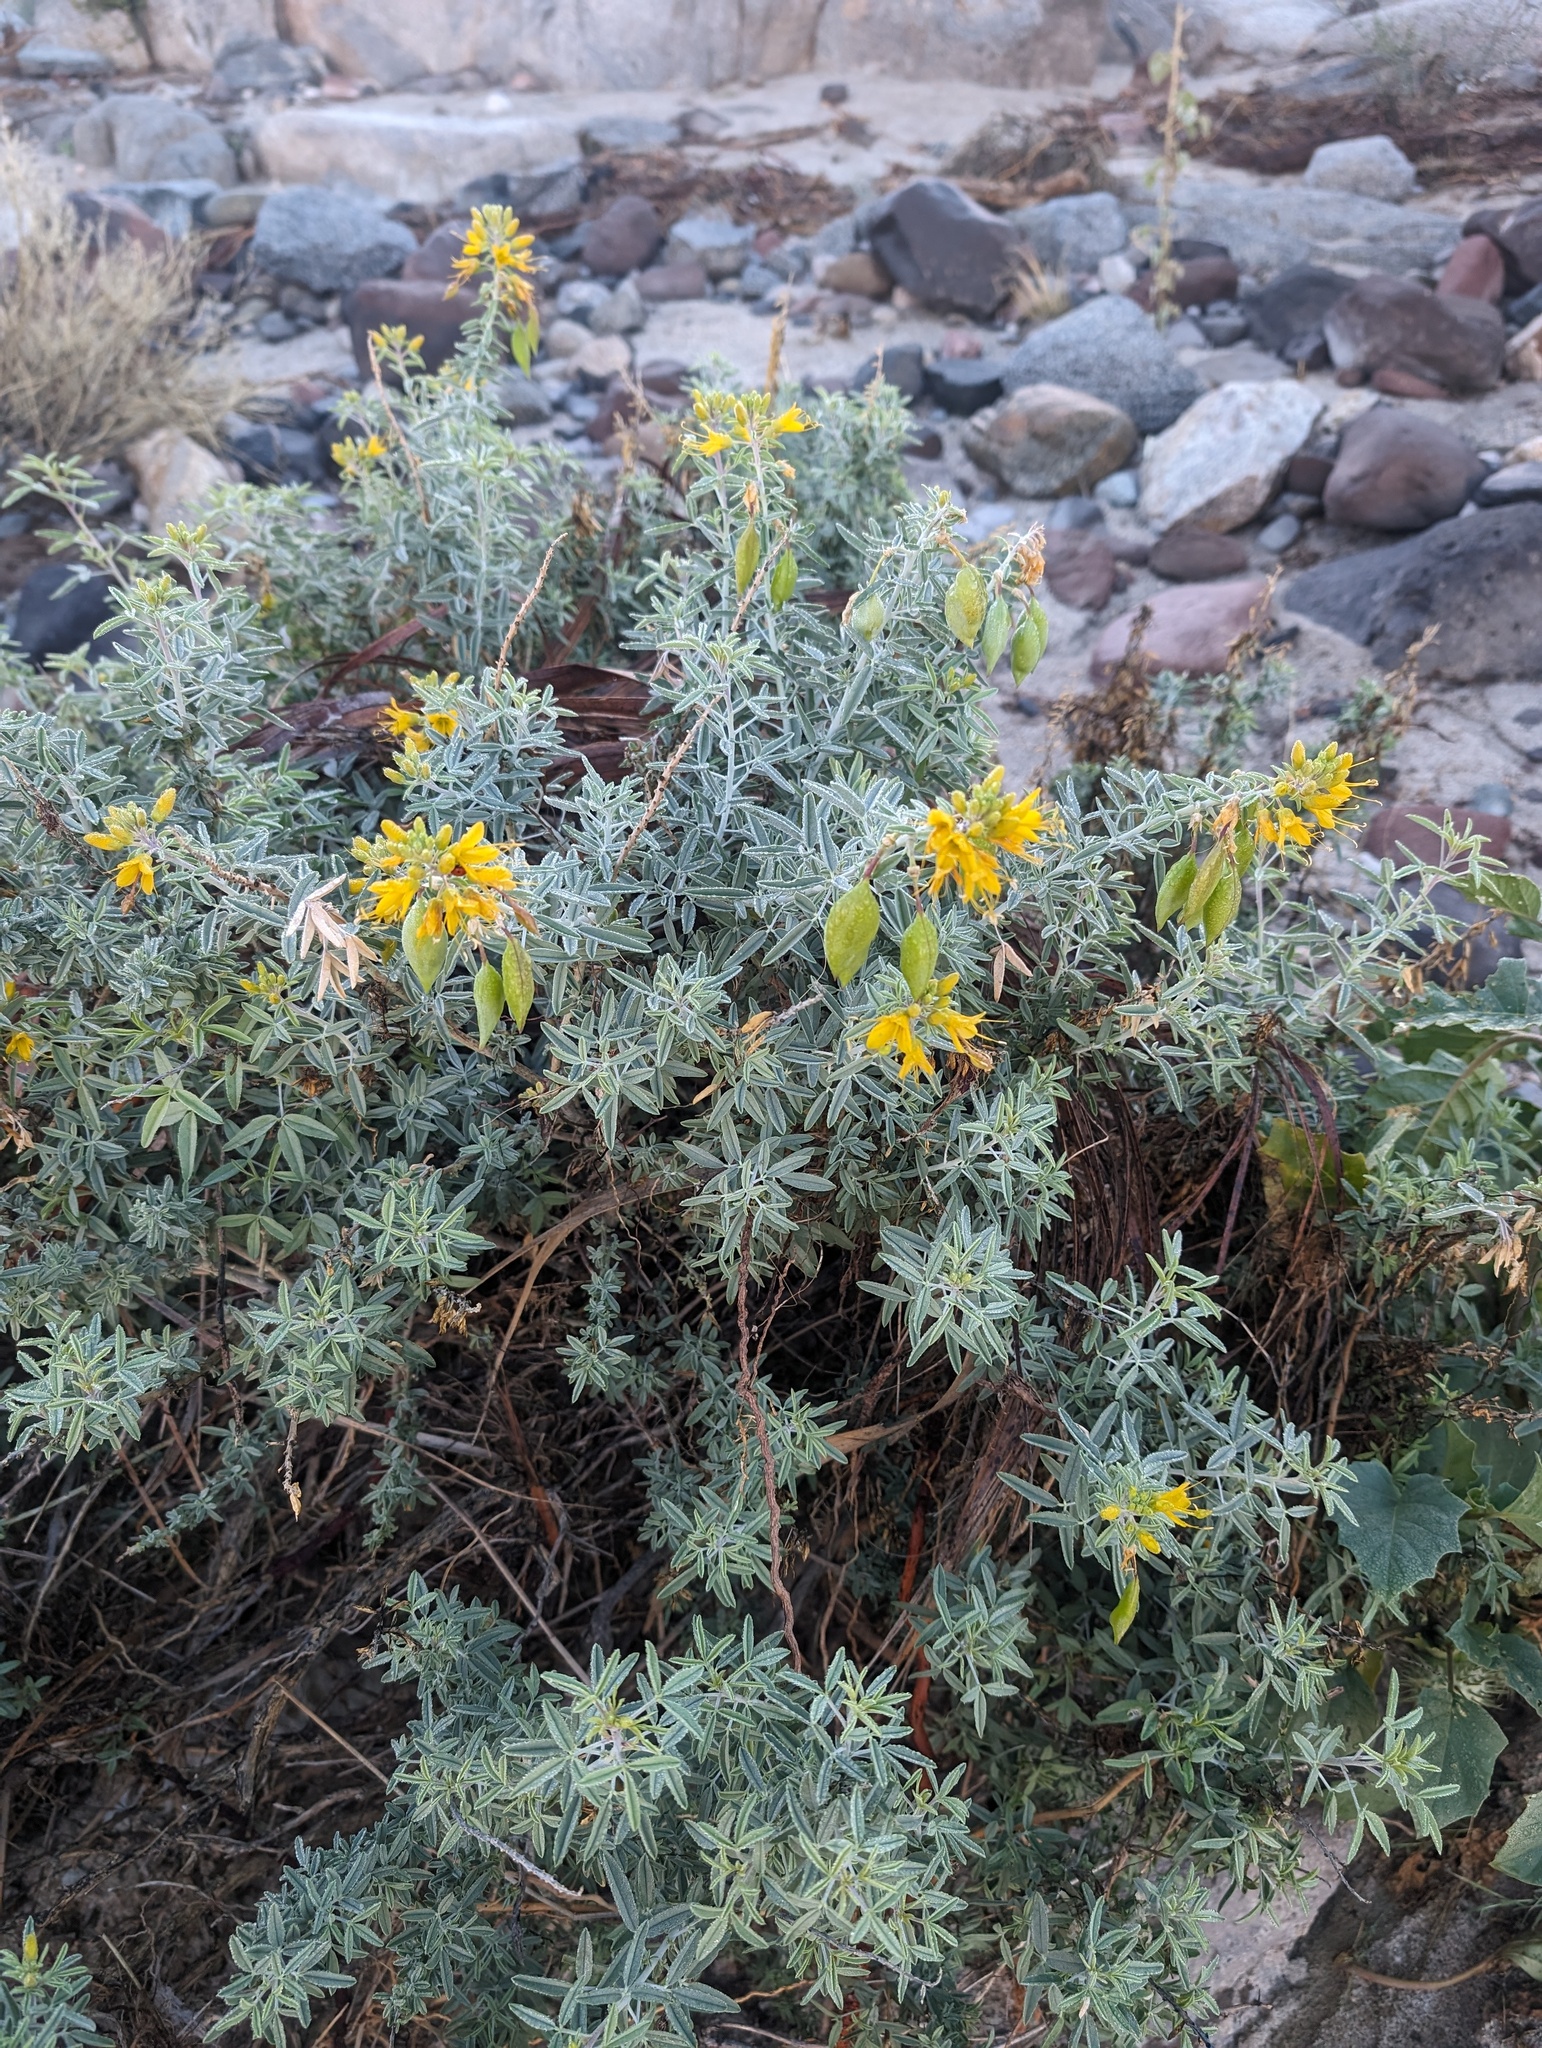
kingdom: Plantae
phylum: Tracheophyta
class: Magnoliopsida
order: Brassicales
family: Cleomaceae
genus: Cleomella
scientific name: Cleomella arborea
